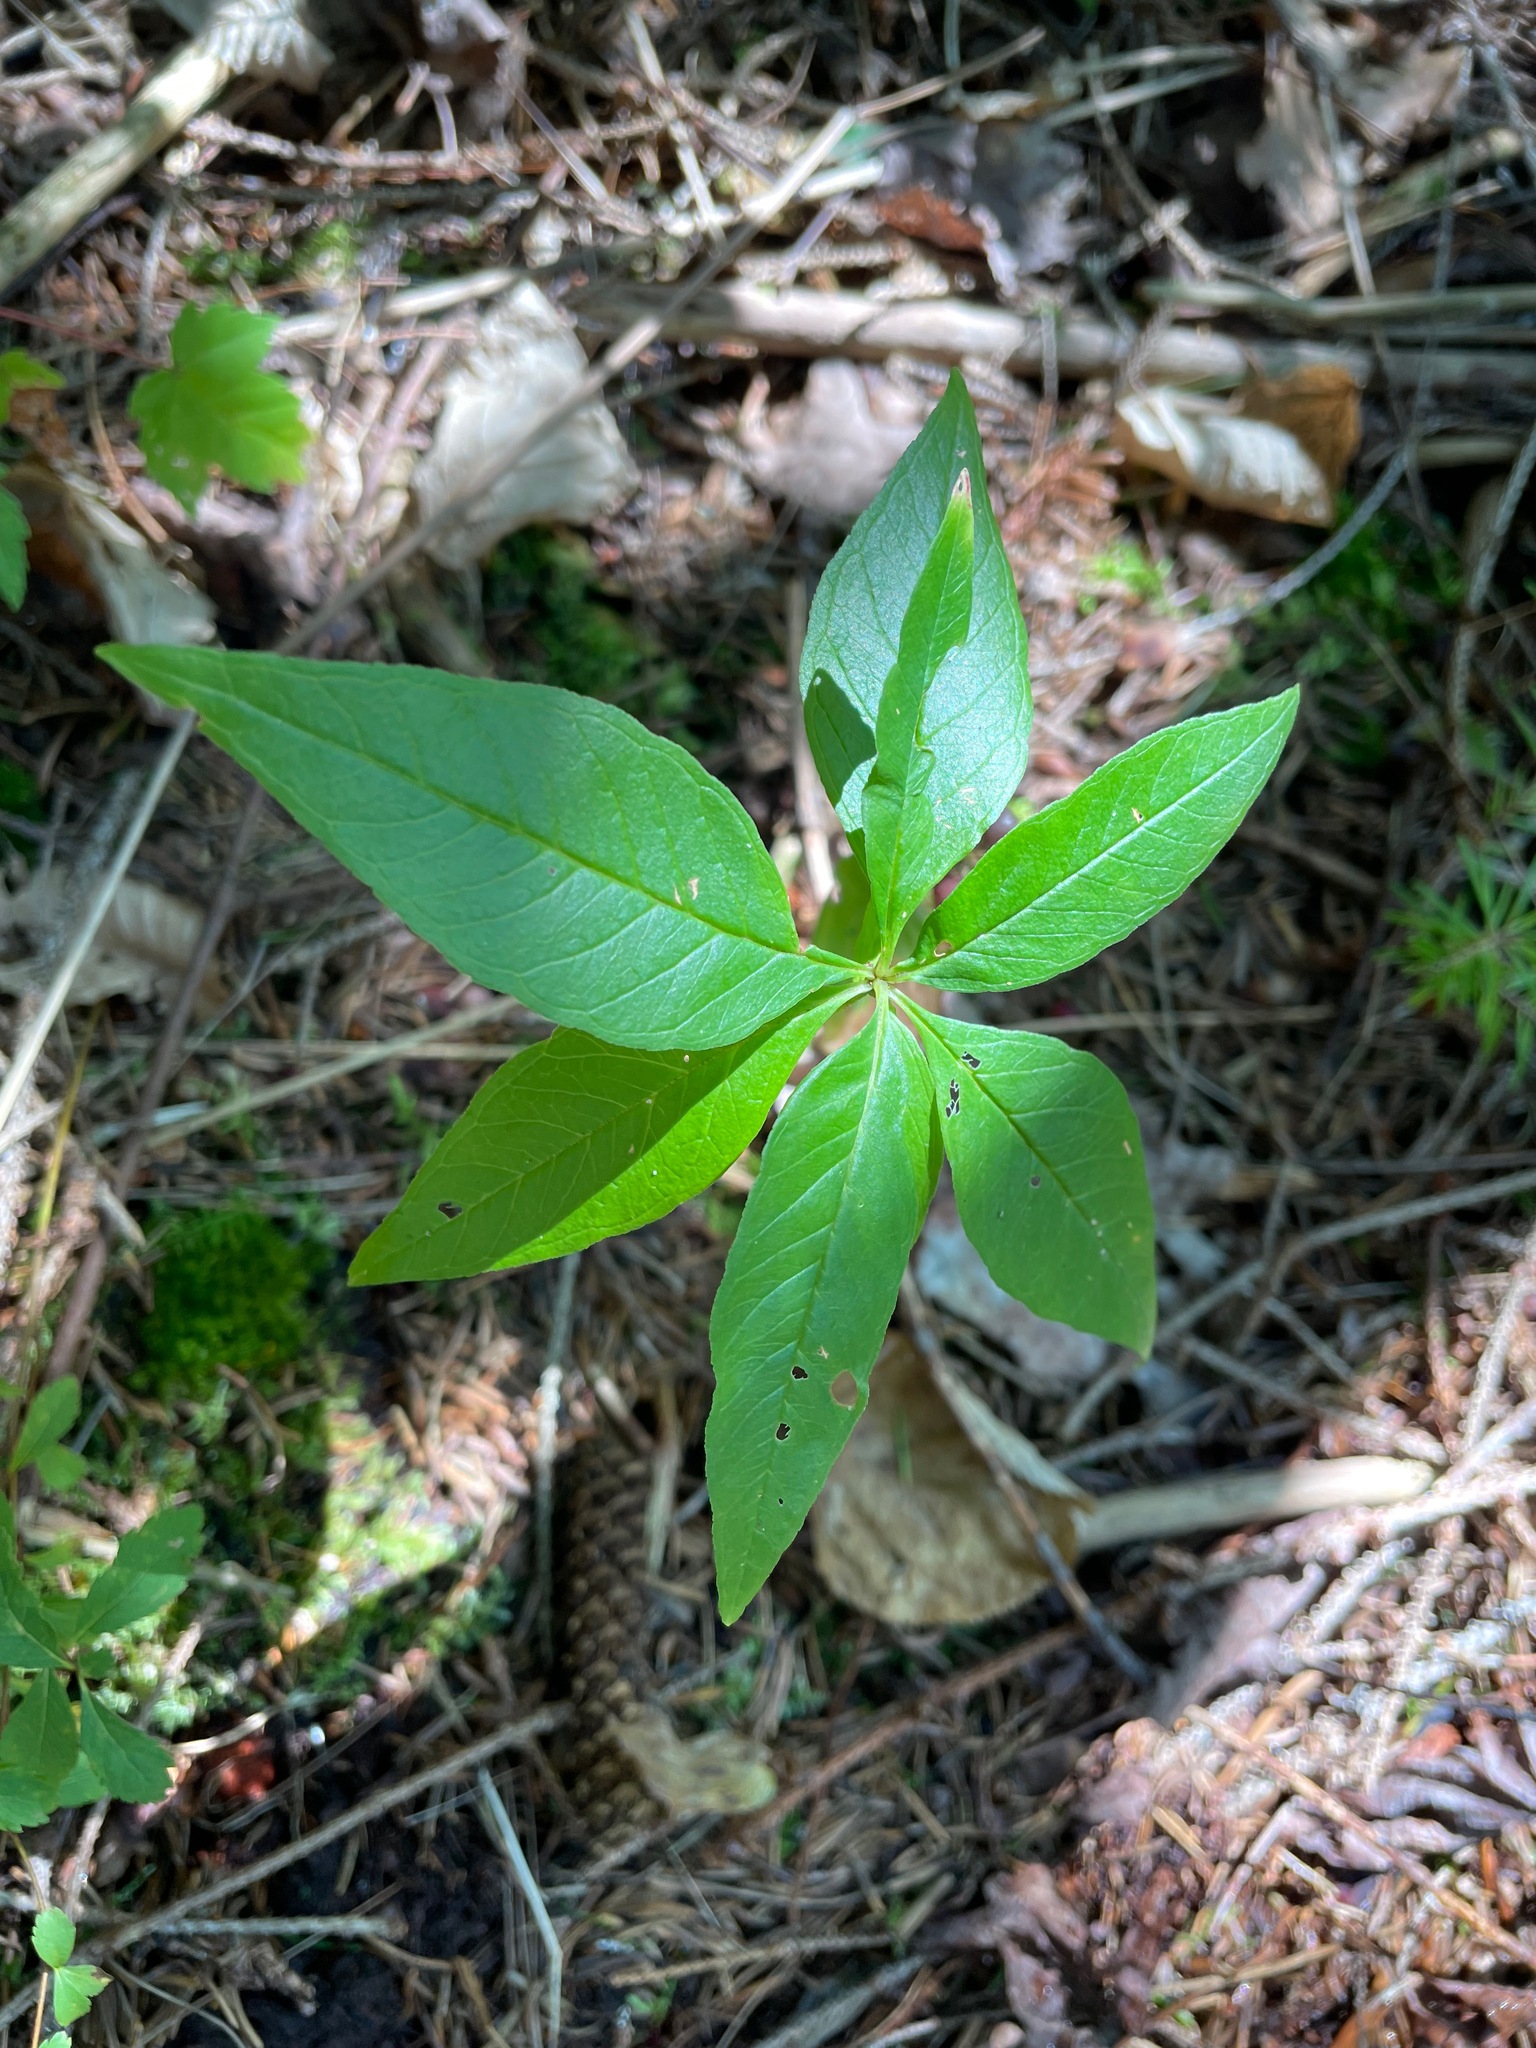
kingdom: Plantae
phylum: Tracheophyta
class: Magnoliopsida
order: Ericales
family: Primulaceae
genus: Lysimachia
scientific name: Lysimachia borealis
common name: American starflower
